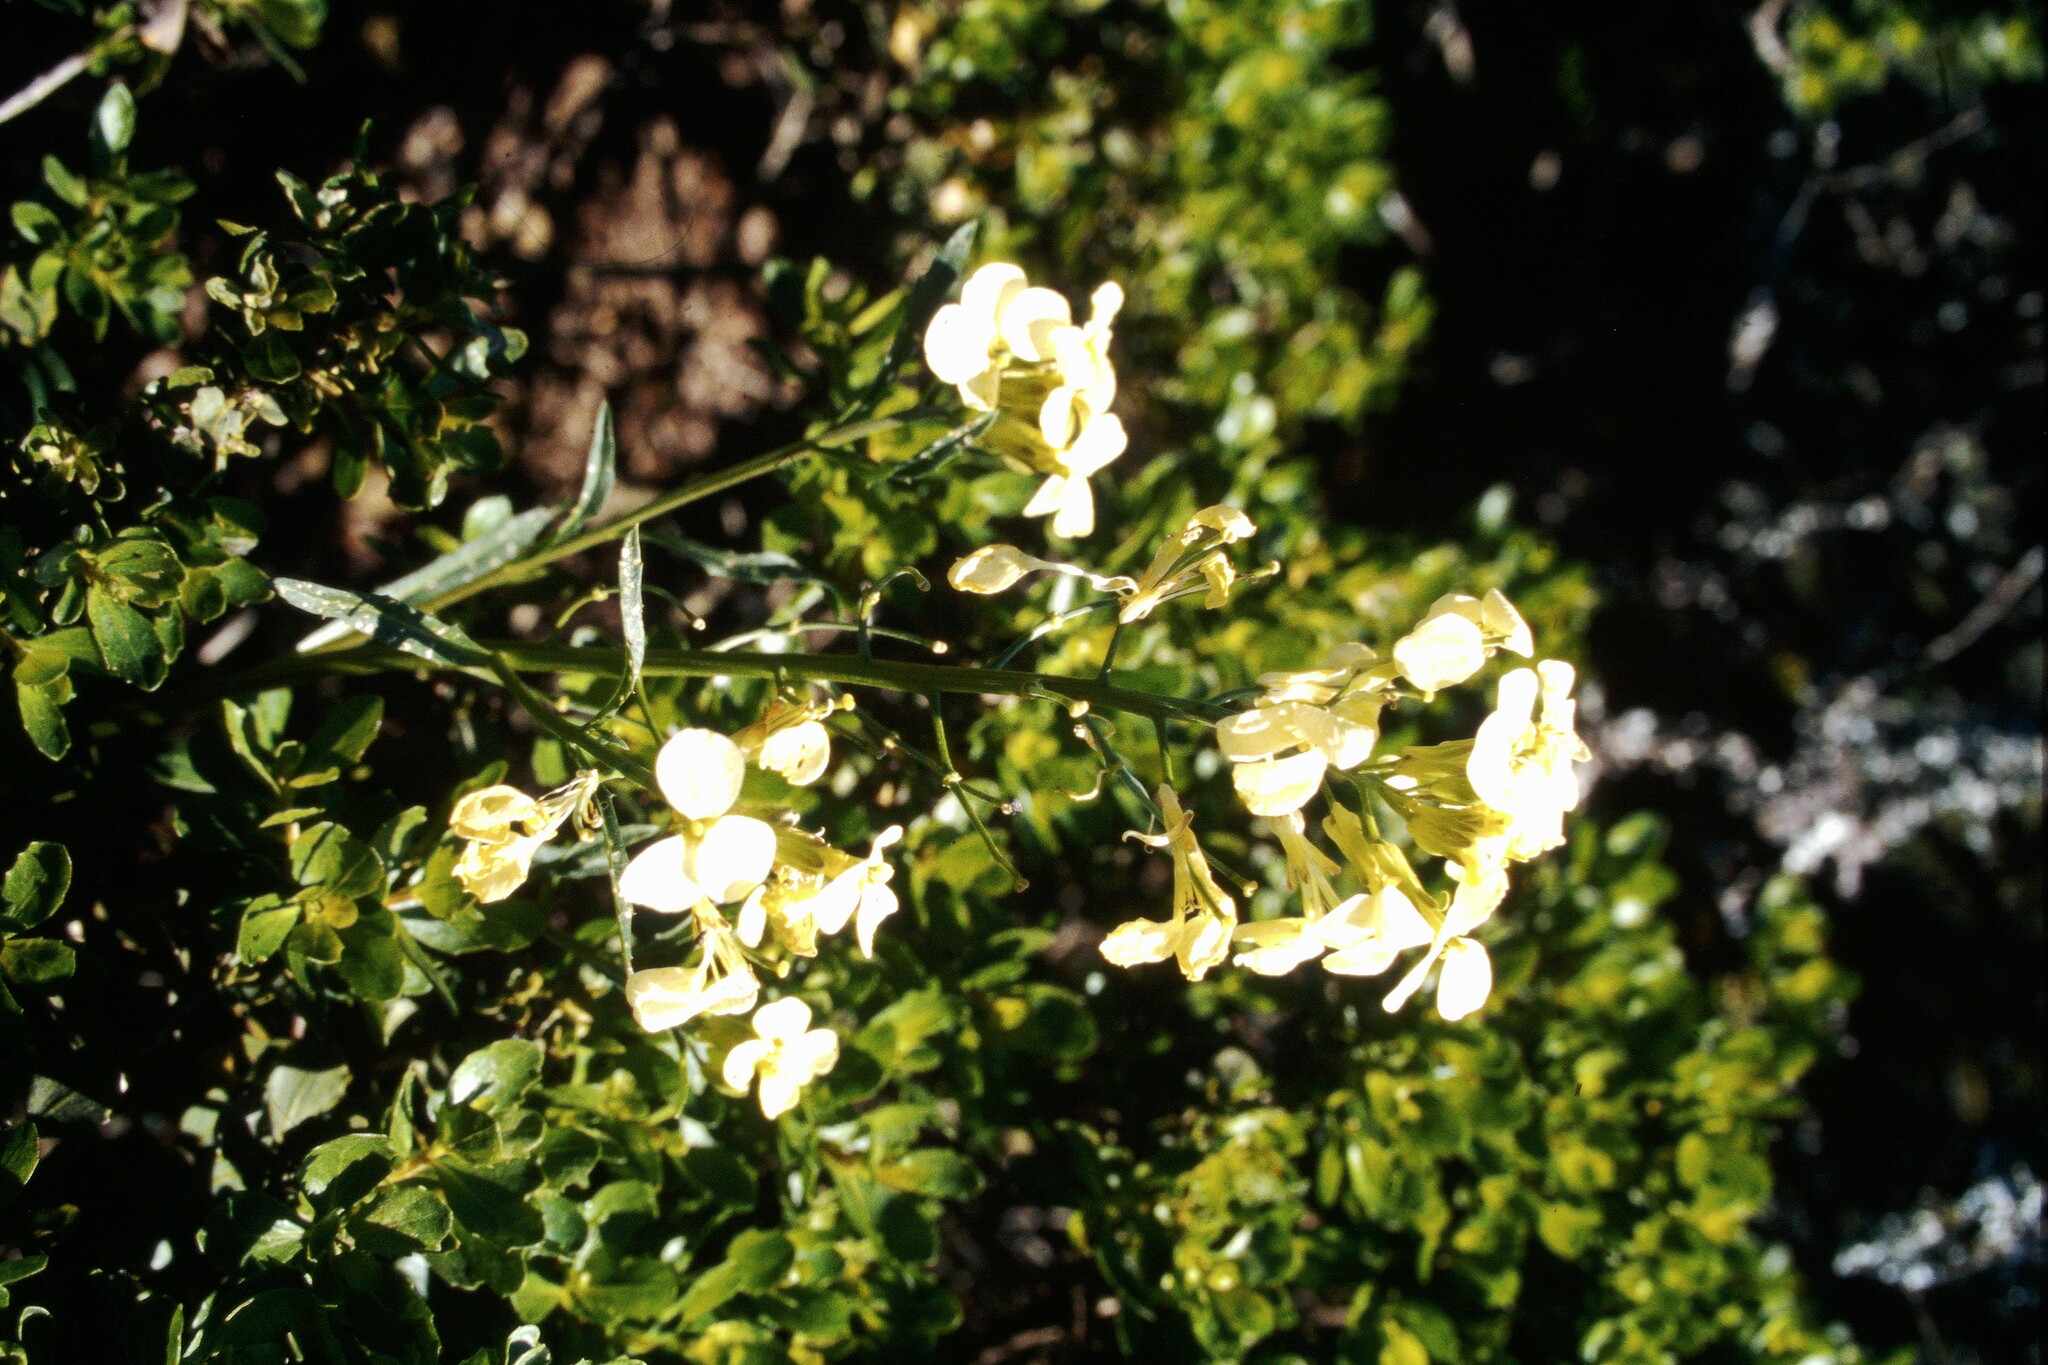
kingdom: Plantae
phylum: Tracheophyta
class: Magnoliopsida
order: Brassicales
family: Brassicaceae
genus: Erysimum
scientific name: Erysimum franciscanum
